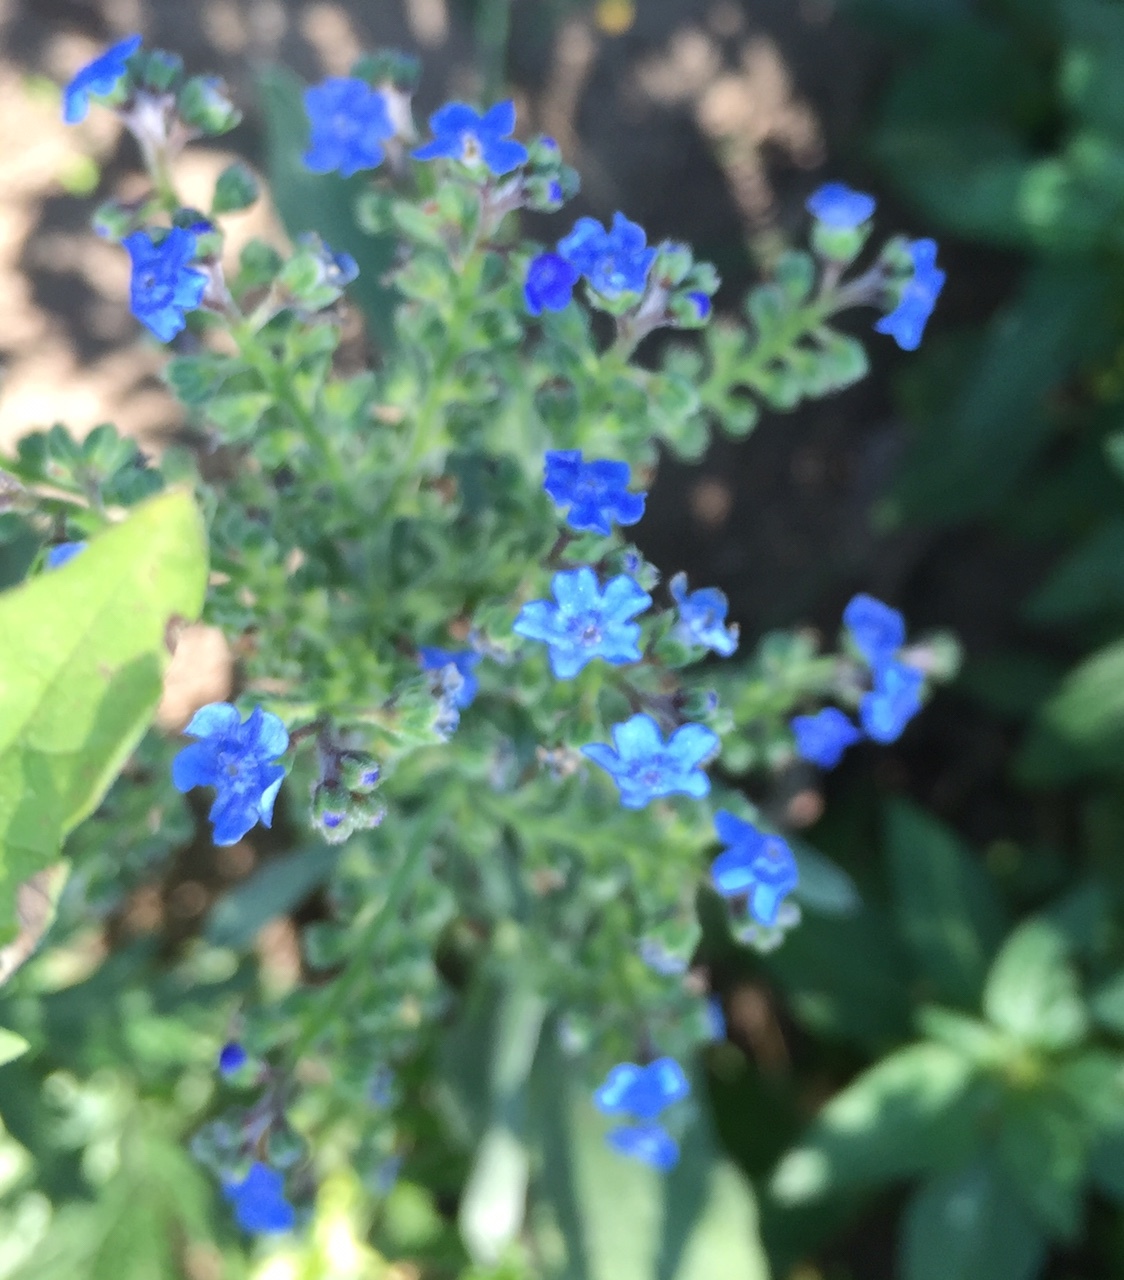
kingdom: Plantae
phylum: Tracheophyta
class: Magnoliopsida
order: Boraginales
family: Boraginaceae
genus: Cynoglossum
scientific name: Cynoglossum amabile
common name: Chinese hound's tongue
